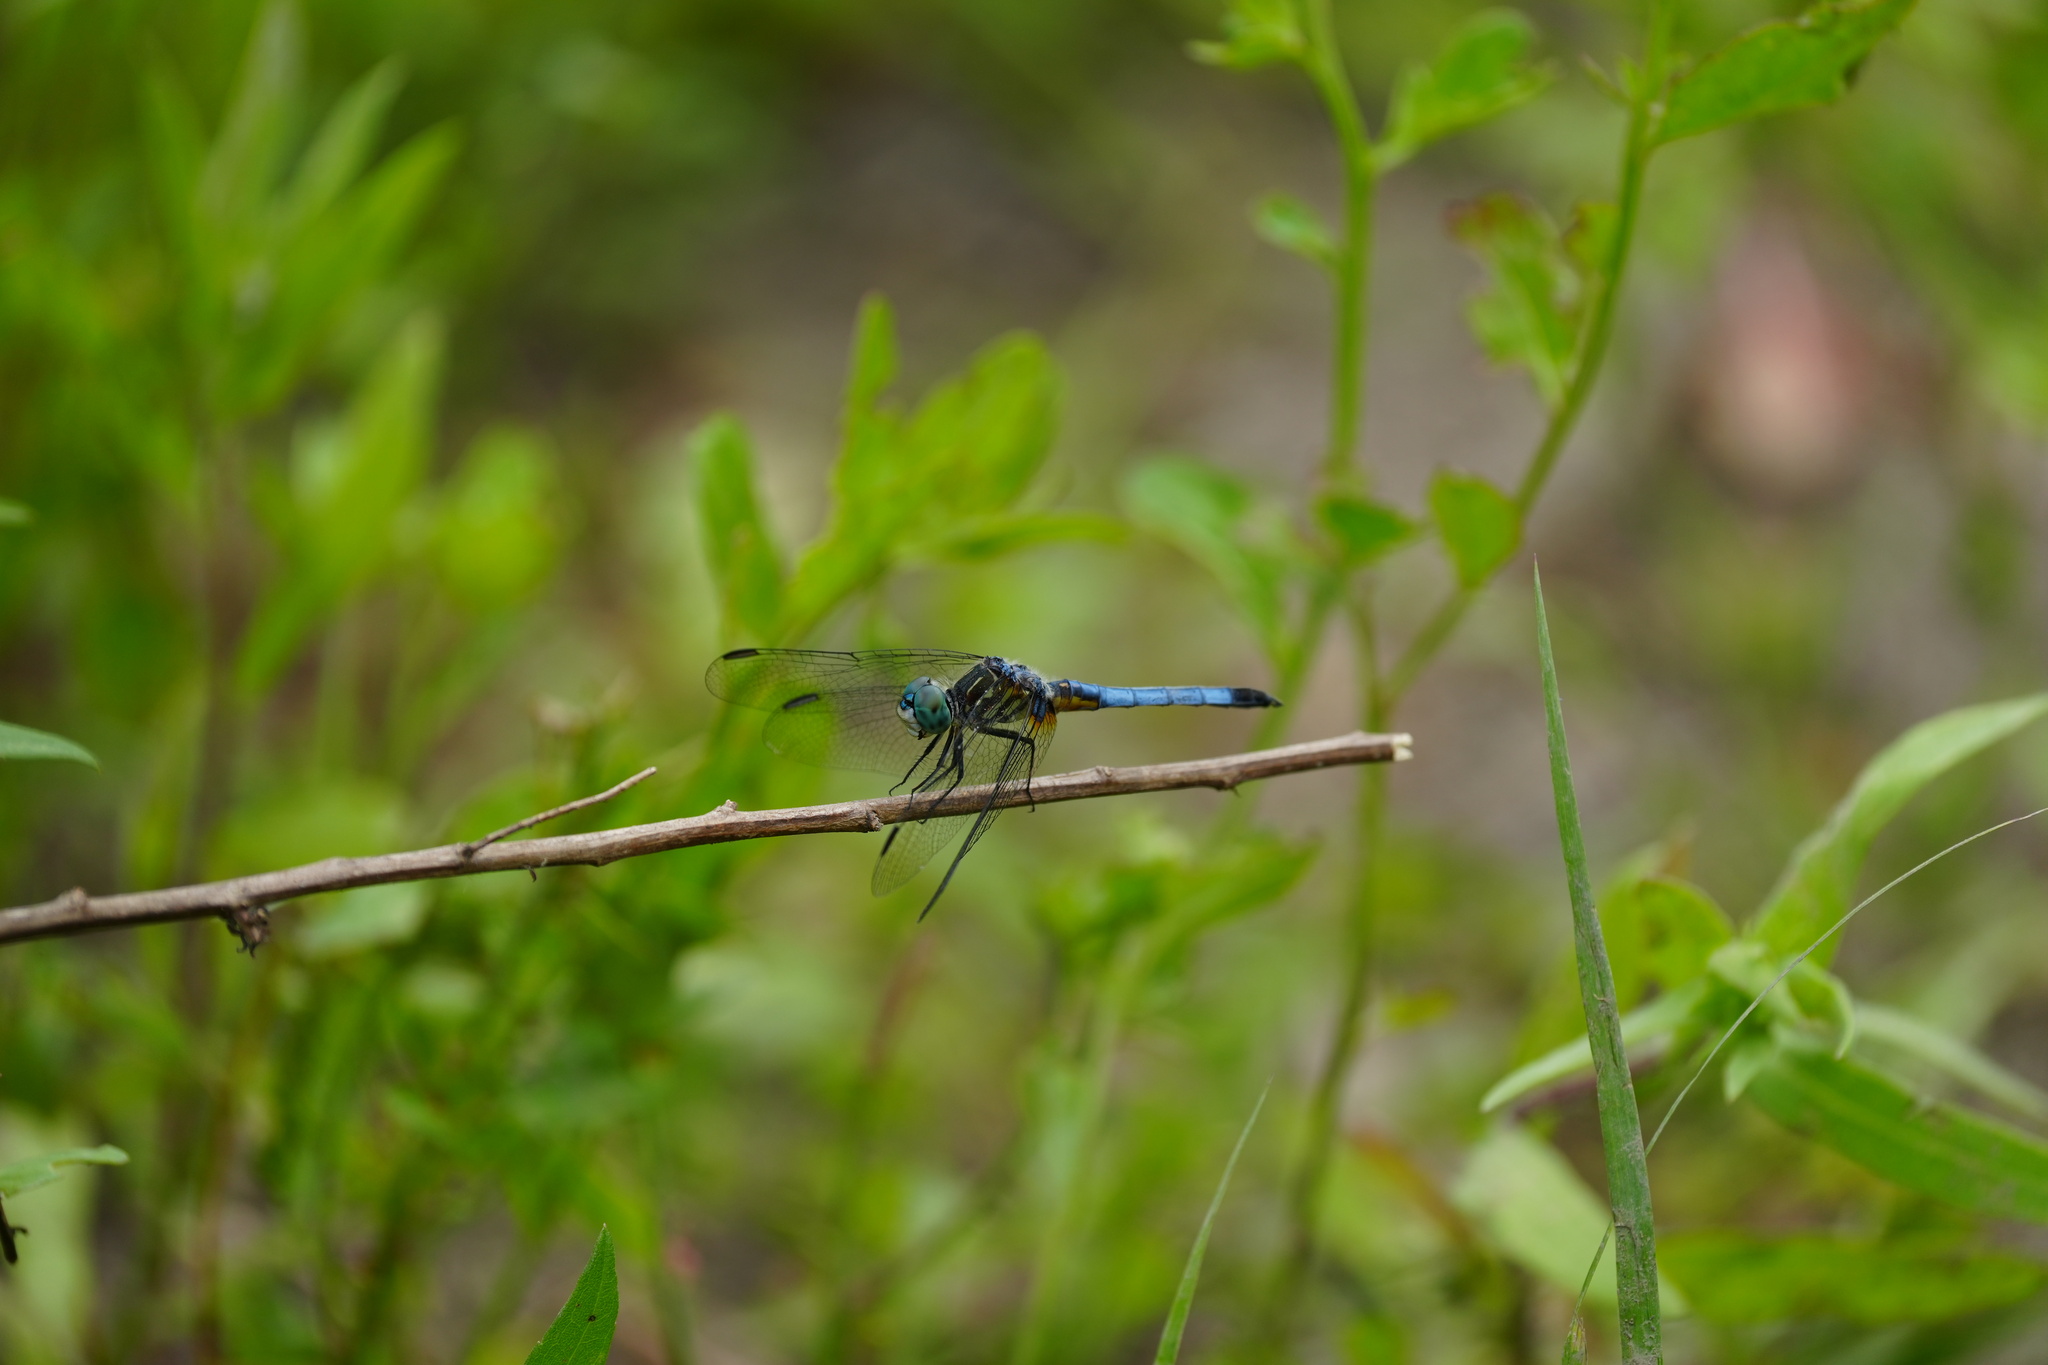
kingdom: Animalia
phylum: Arthropoda
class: Insecta
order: Odonata
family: Libellulidae
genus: Pachydiplax
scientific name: Pachydiplax longipennis
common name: Blue dasher
